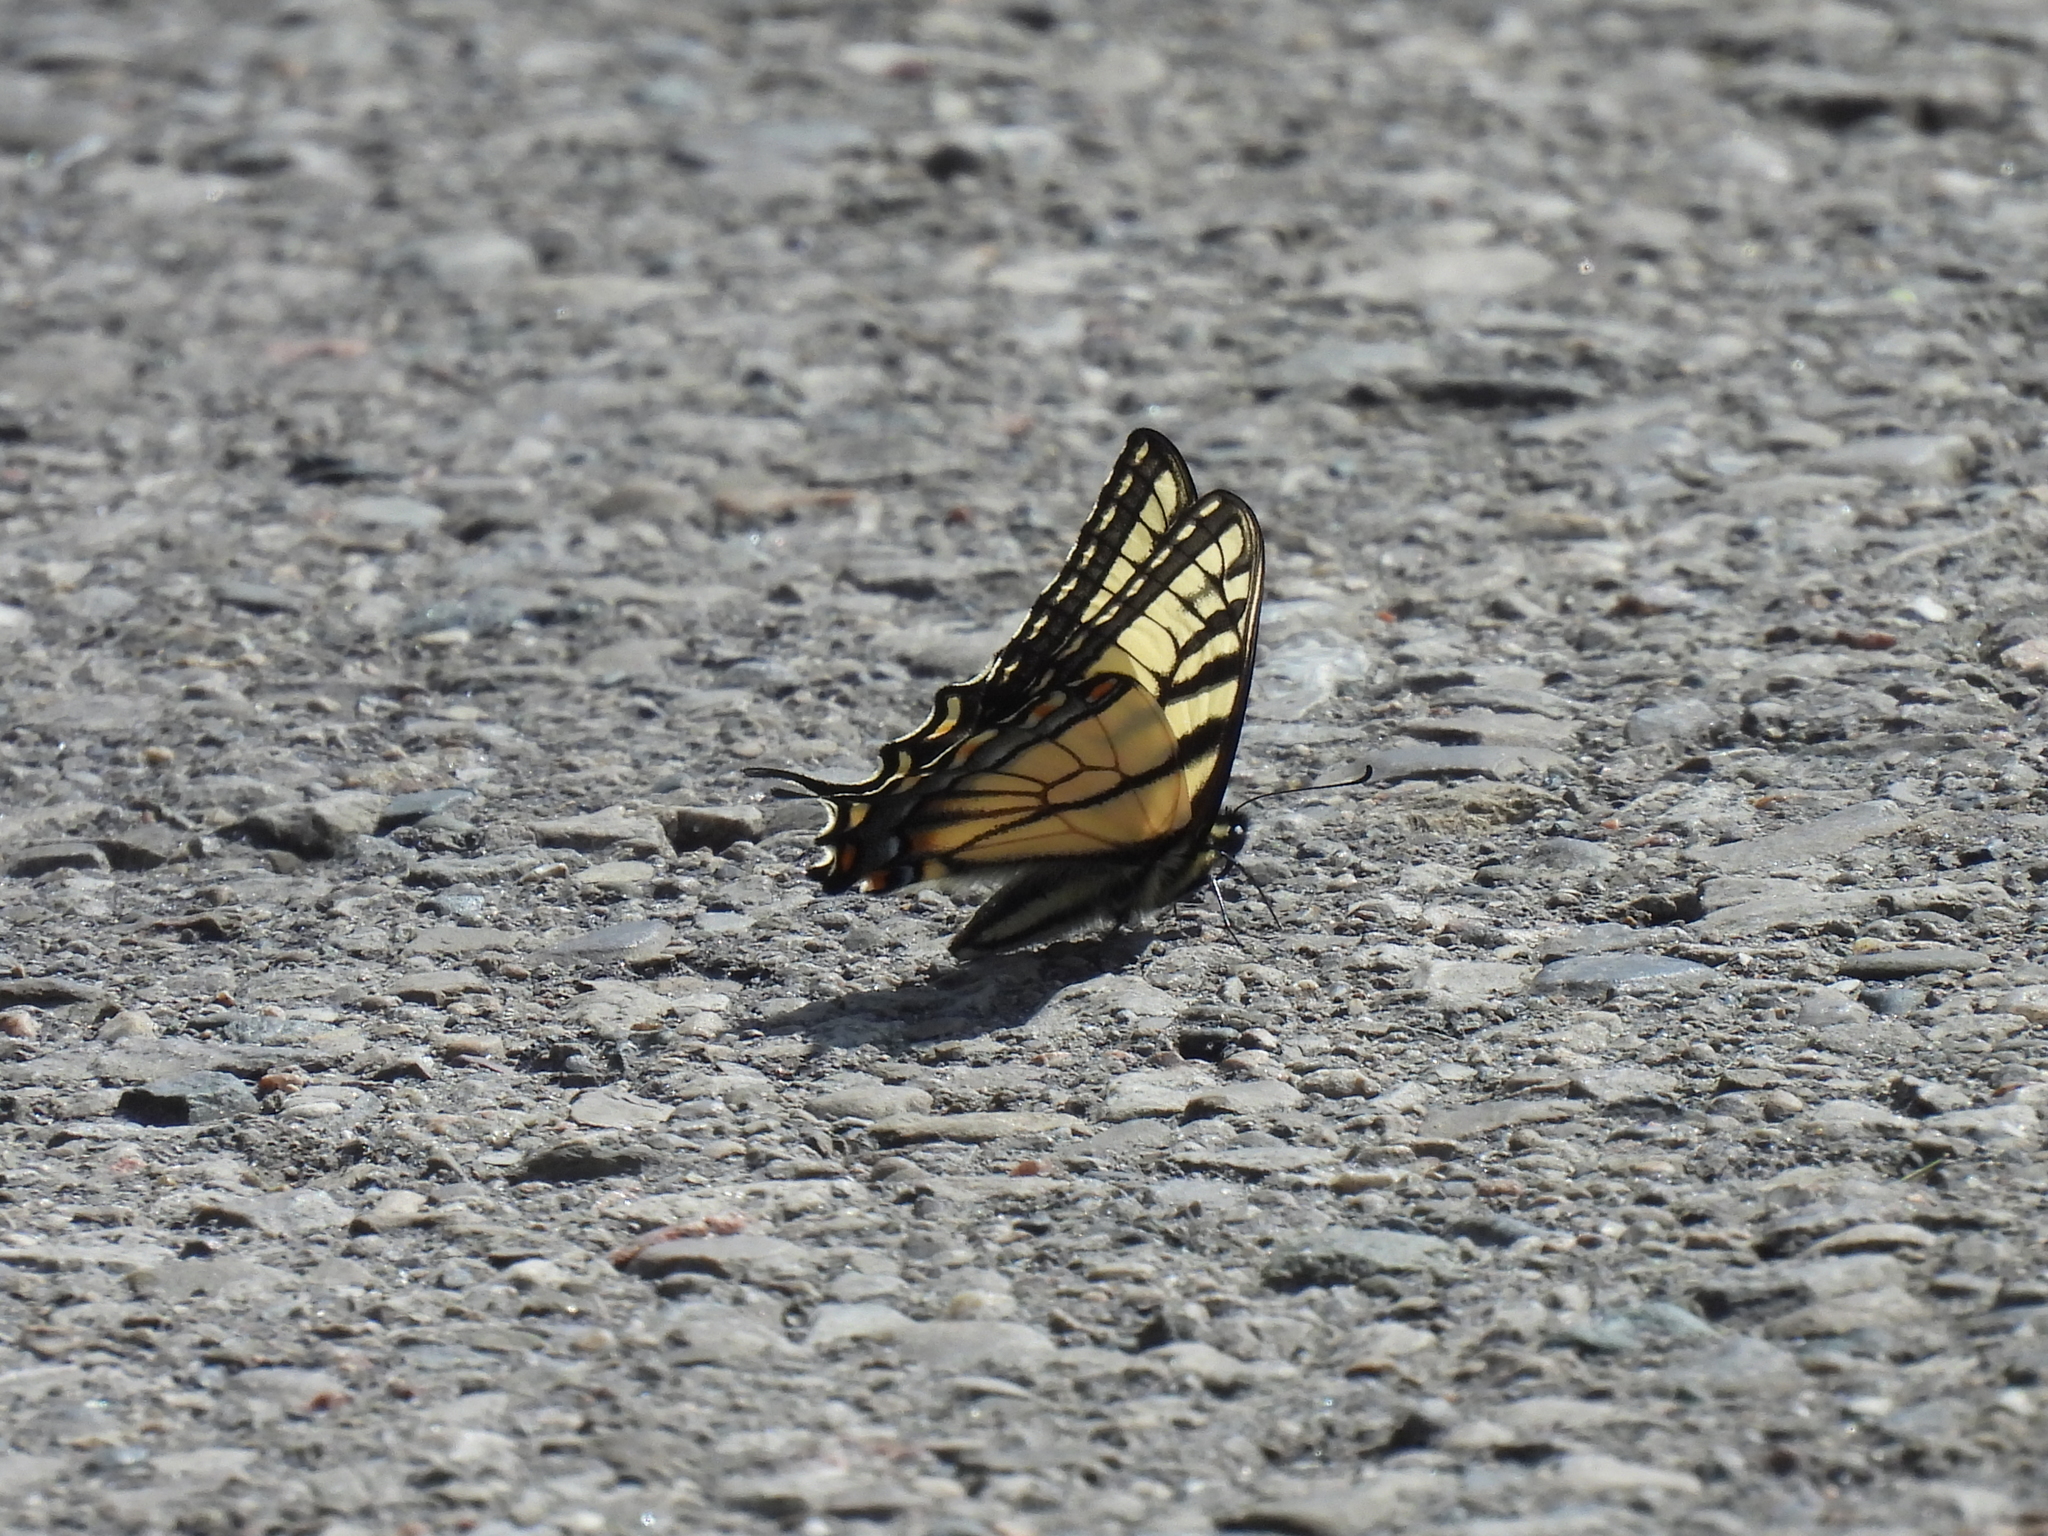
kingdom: Animalia
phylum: Arthropoda
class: Insecta
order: Lepidoptera
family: Papilionidae
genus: Papilio
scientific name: Papilio glaucus
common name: Tiger swallowtail
